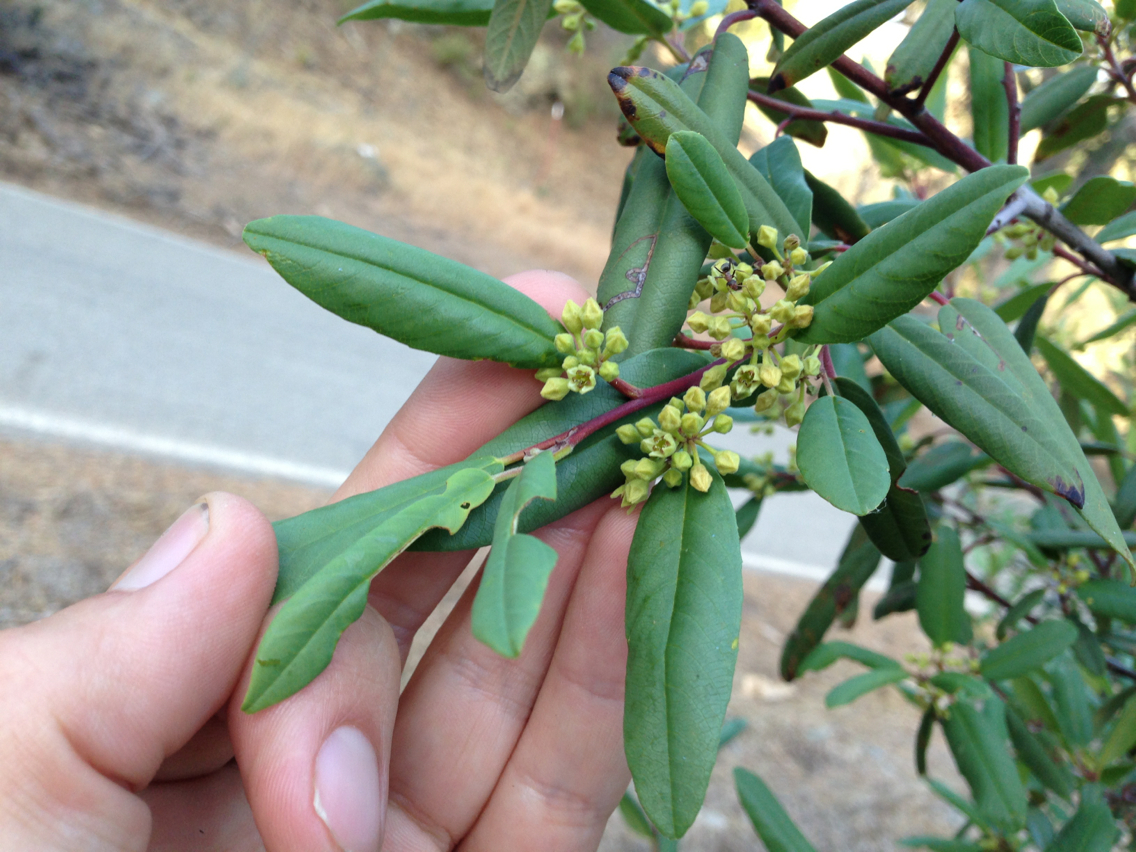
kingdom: Plantae
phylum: Tracheophyta
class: Magnoliopsida
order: Rosales
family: Rhamnaceae
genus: Frangula
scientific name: Frangula californica
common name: California buckthorn
